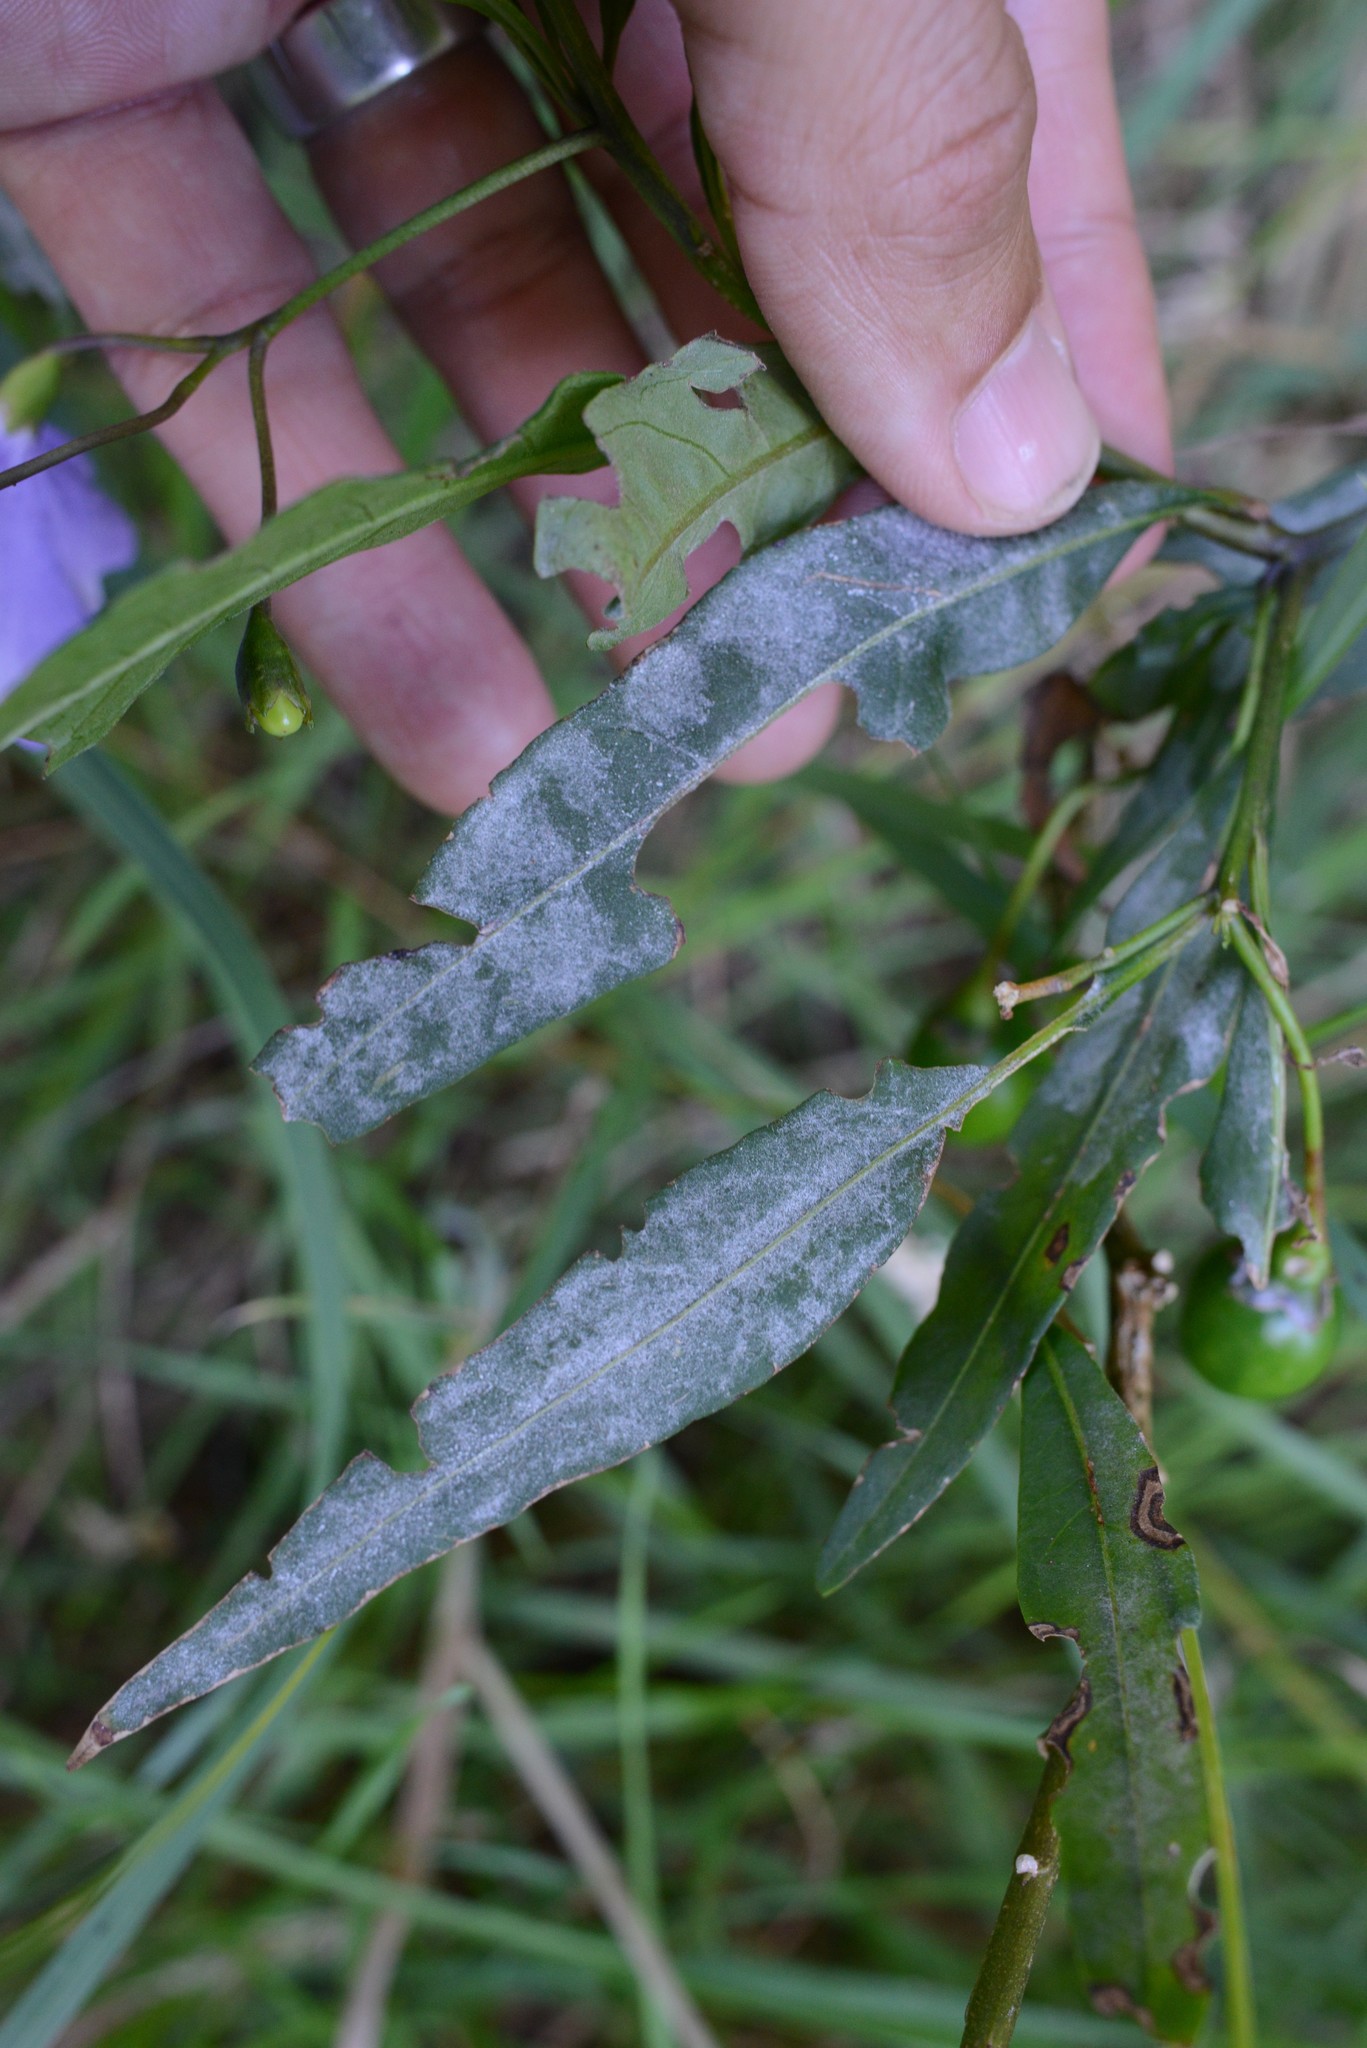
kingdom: Fungi
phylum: Ascomycota
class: Leotiomycetes
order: Helotiales
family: Erysiphaceae
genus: Golovinomyces
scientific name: Golovinomyces longipes
